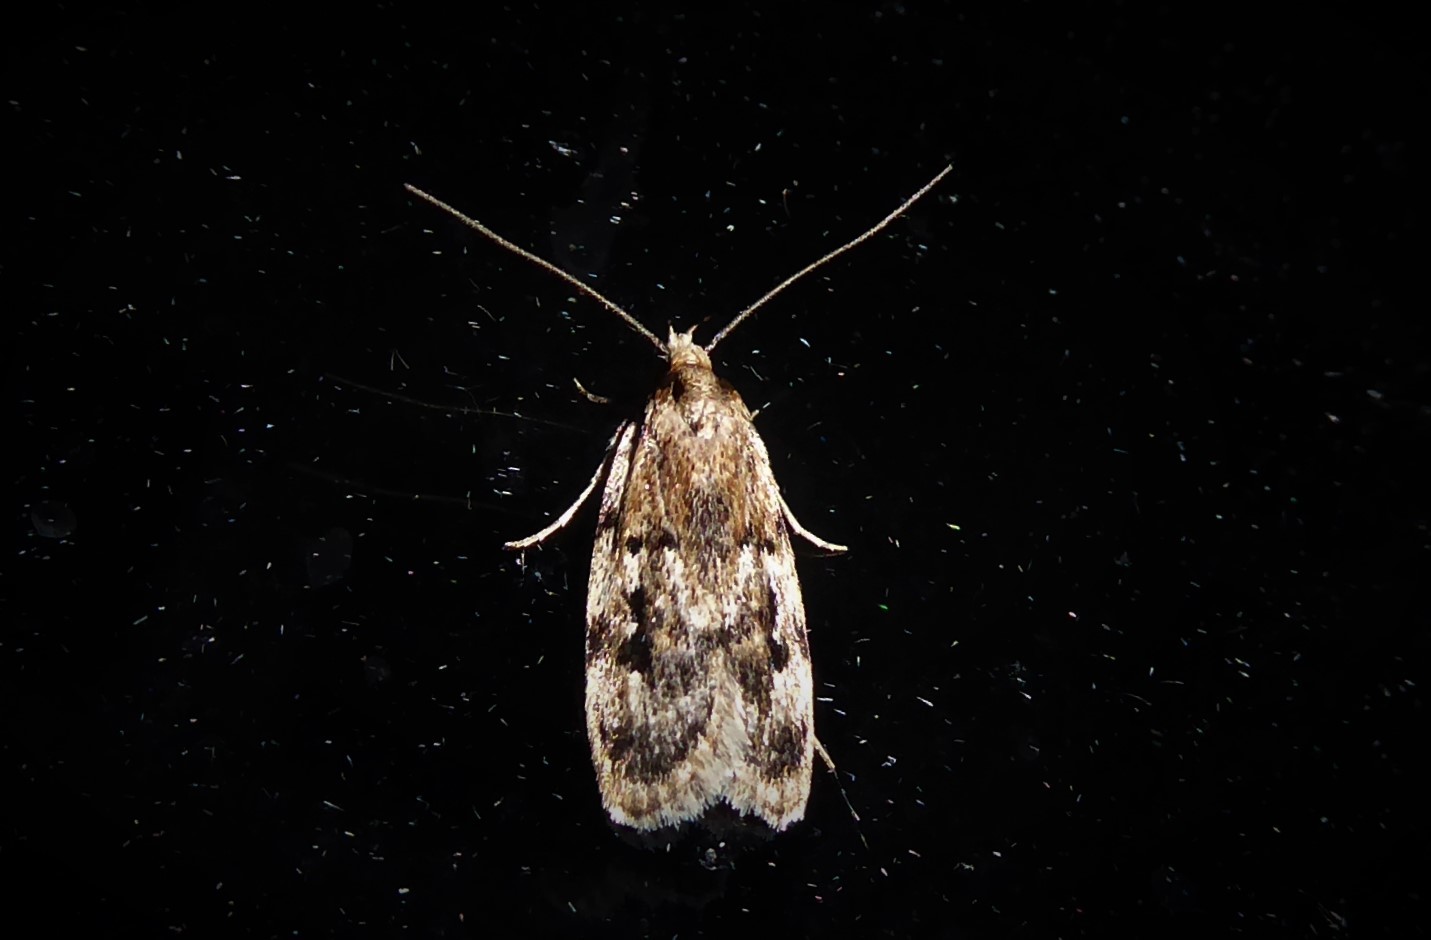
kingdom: Animalia
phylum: Arthropoda
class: Insecta
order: Lepidoptera
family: Oecophoridae
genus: Barea
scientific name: Barea exarcha
